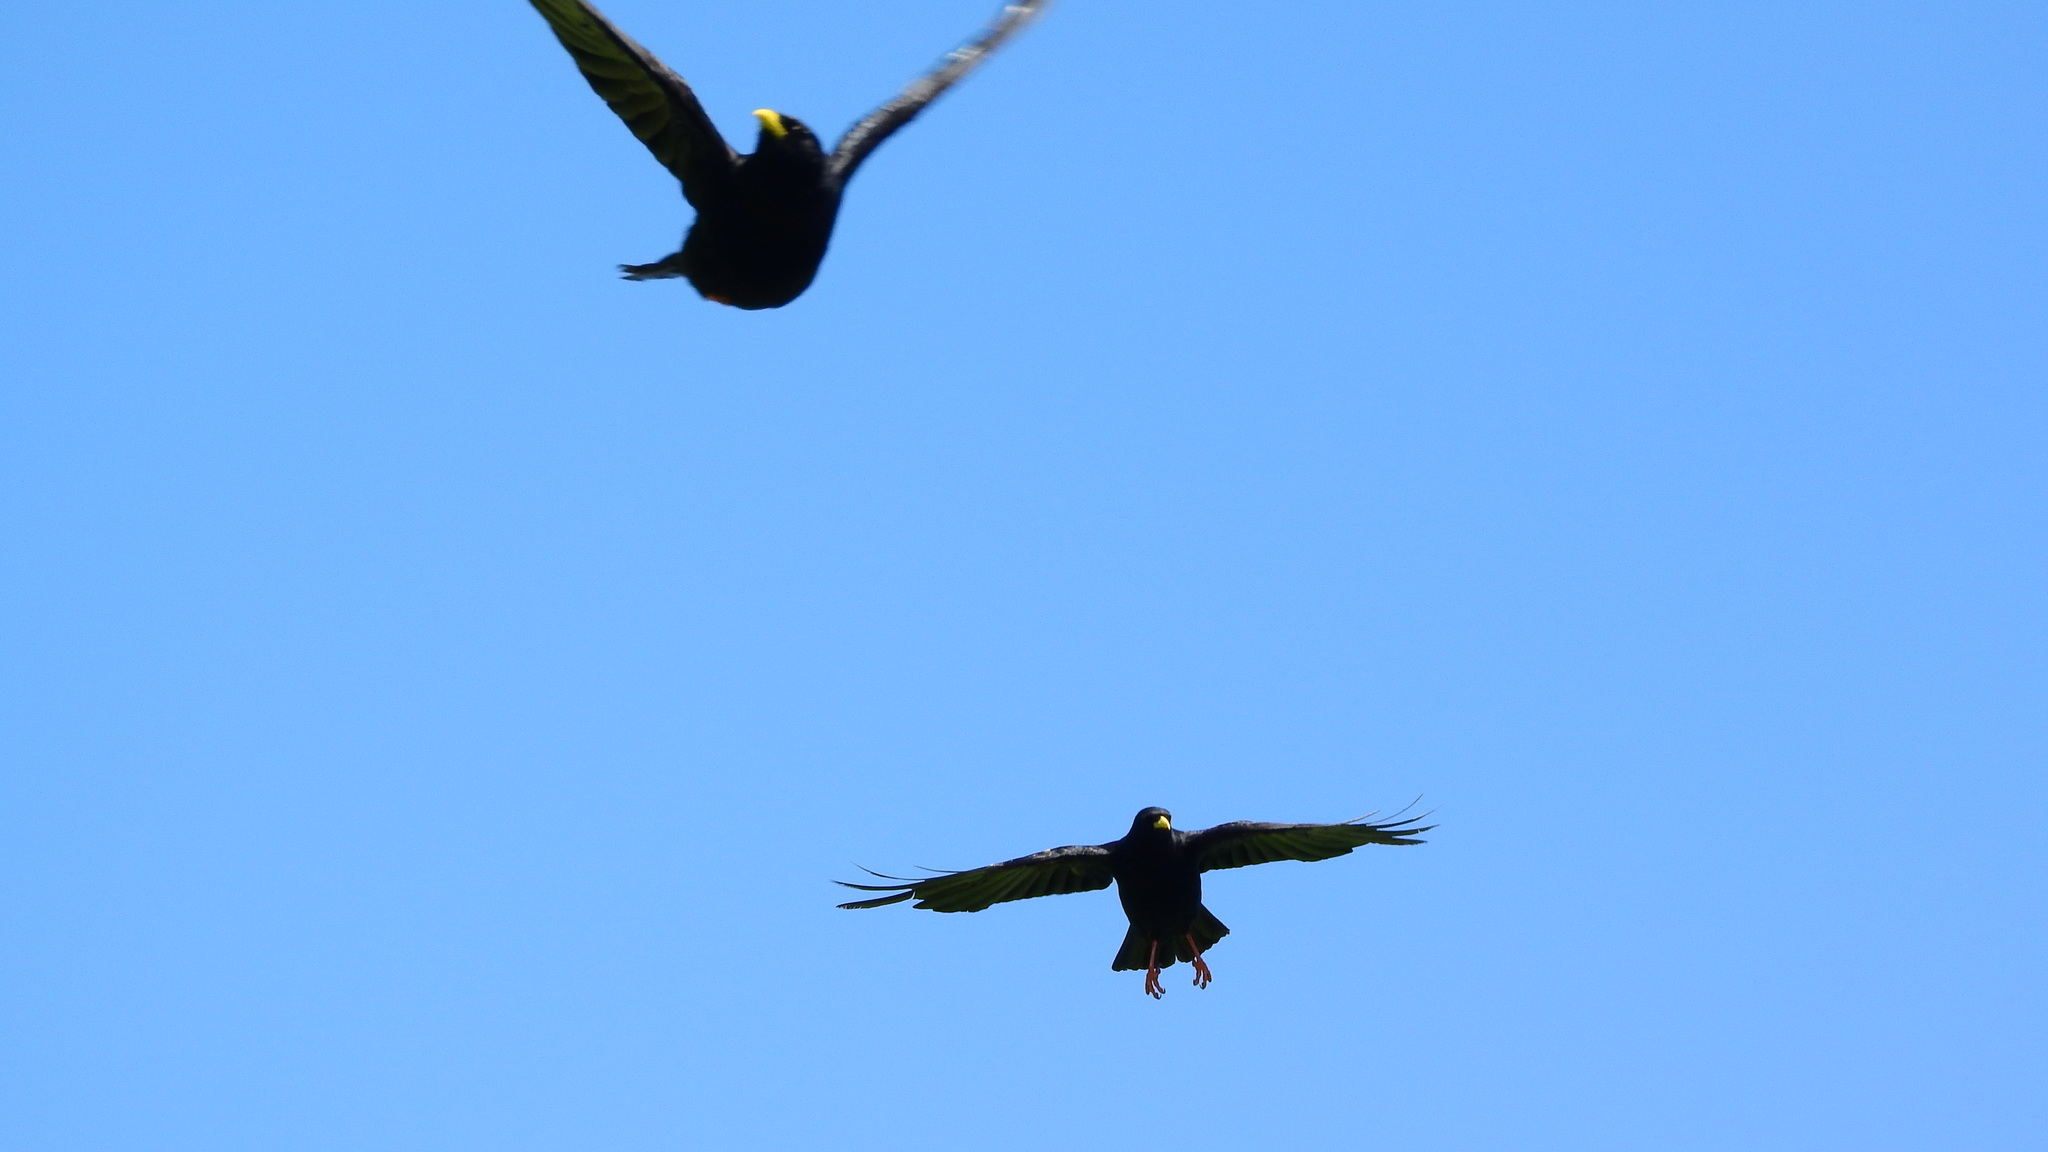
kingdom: Animalia
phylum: Chordata
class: Aves
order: Passeriformes
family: Corvidae
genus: Pyrrhocorax
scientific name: Pyrrhocorax graculus
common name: Alpine chough
